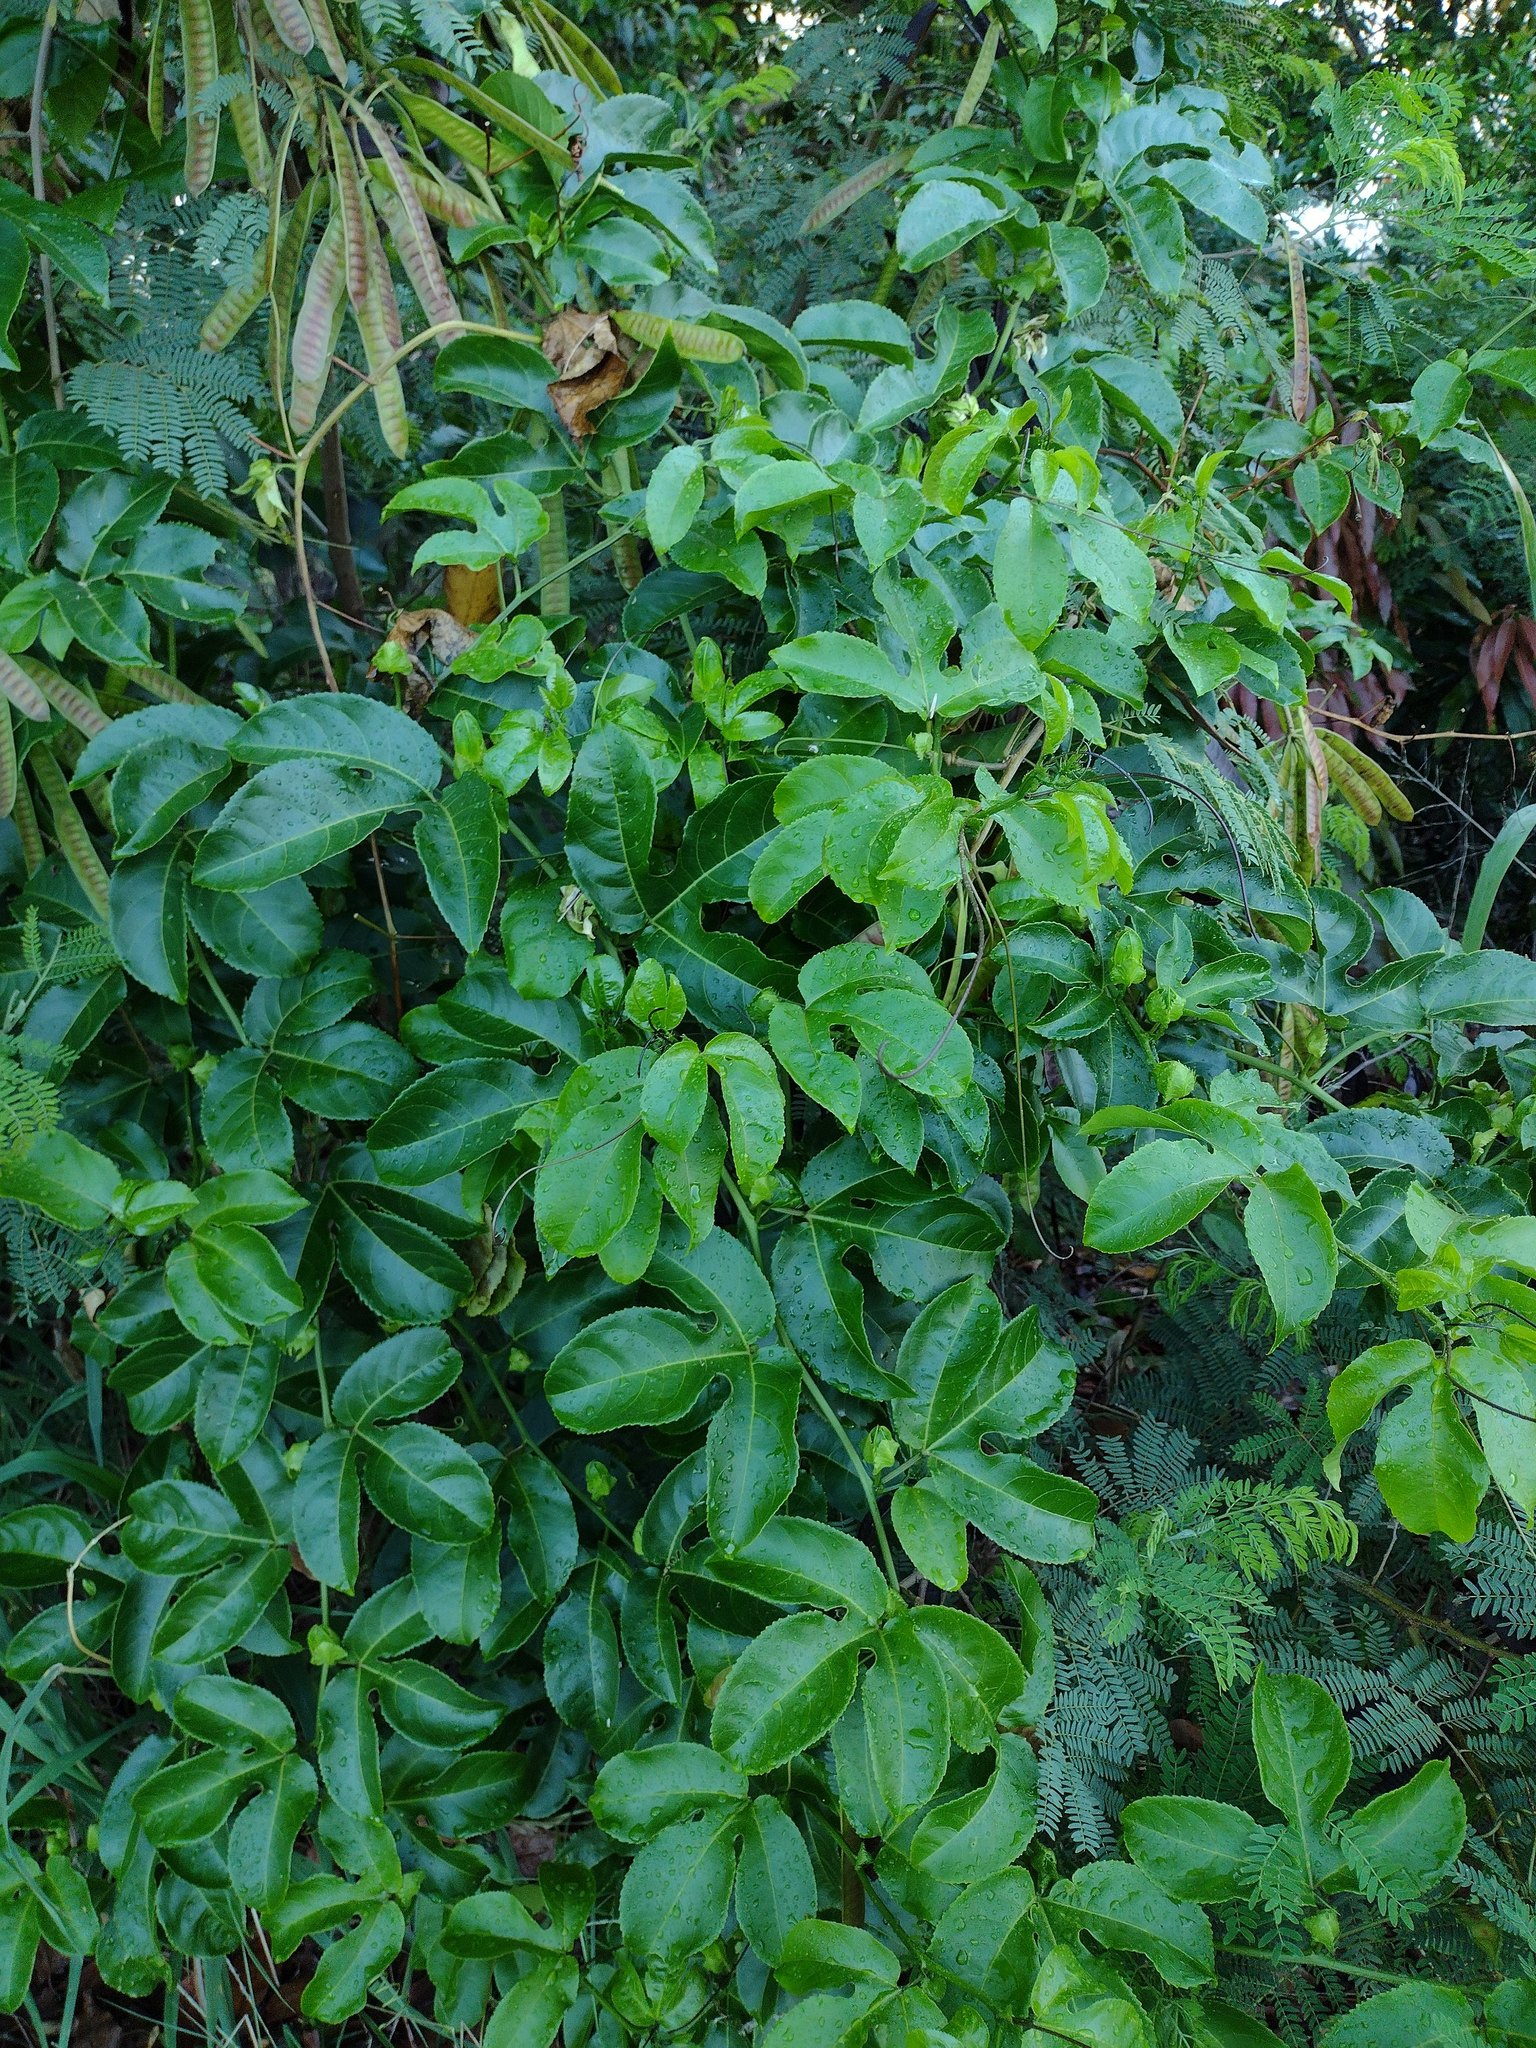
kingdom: Plantae
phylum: Tracheophyta
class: Magnoliopsida
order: Malpighiales
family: Passifloraceae
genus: Passiflora
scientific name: Passiflora edulis
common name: Purple granadilla
